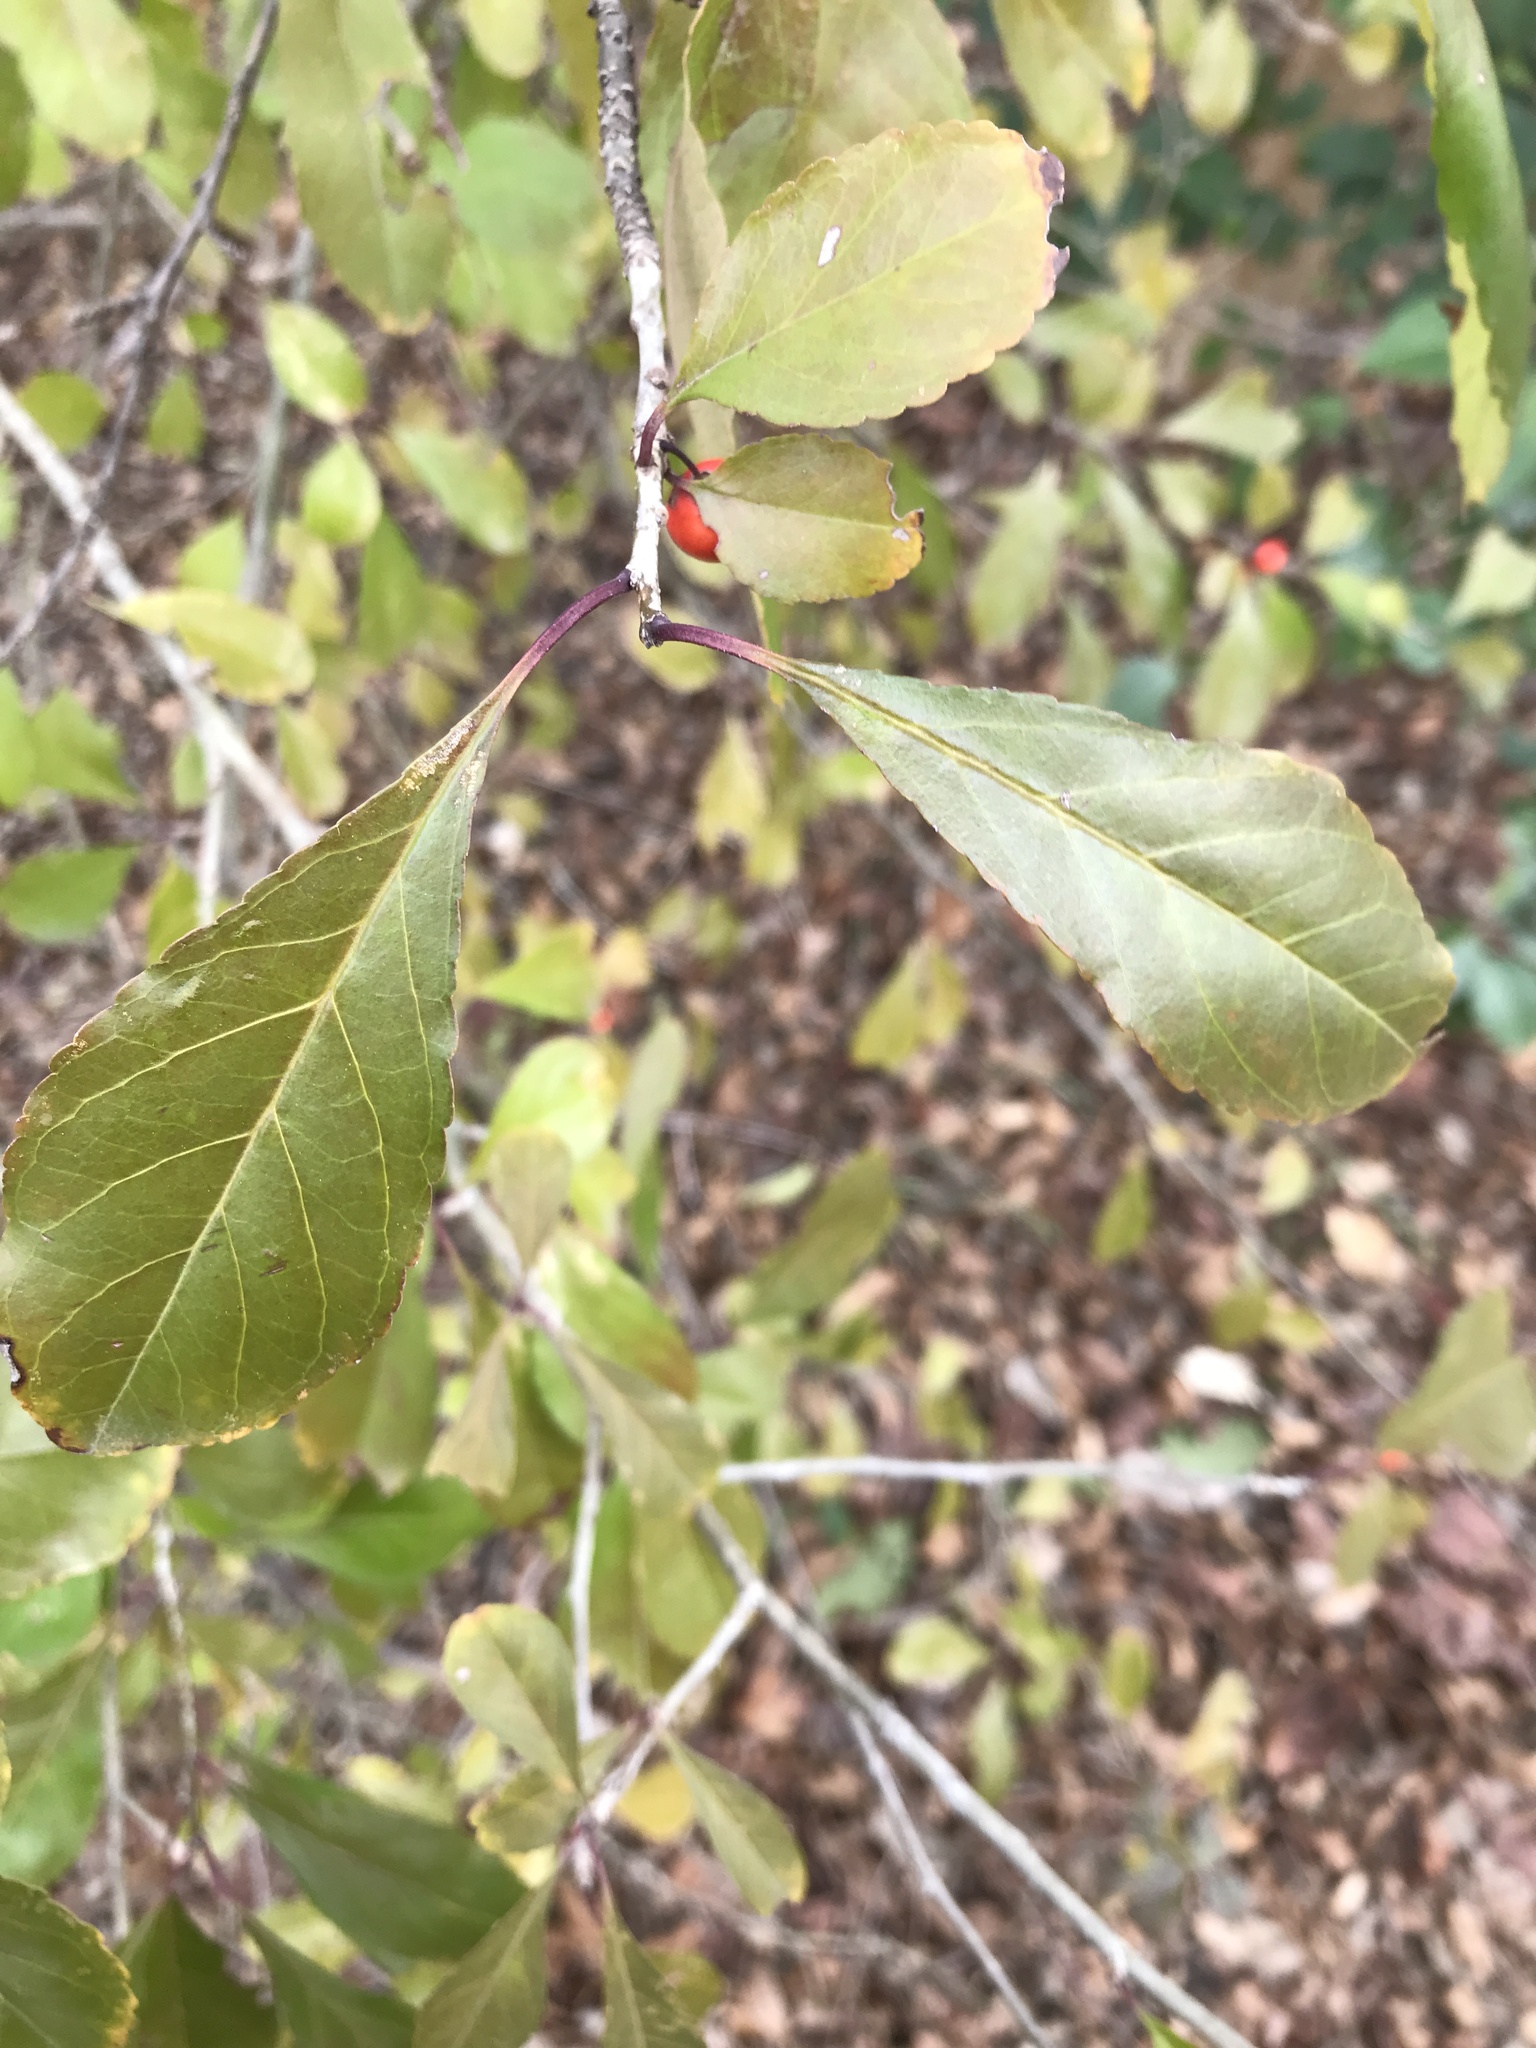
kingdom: Plantae
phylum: Tracheophyta
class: Magnoliopsida
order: Aquifoliales
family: Aquifoliaceae
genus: Ilex
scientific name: Ilex decidua
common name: Possum-haw
